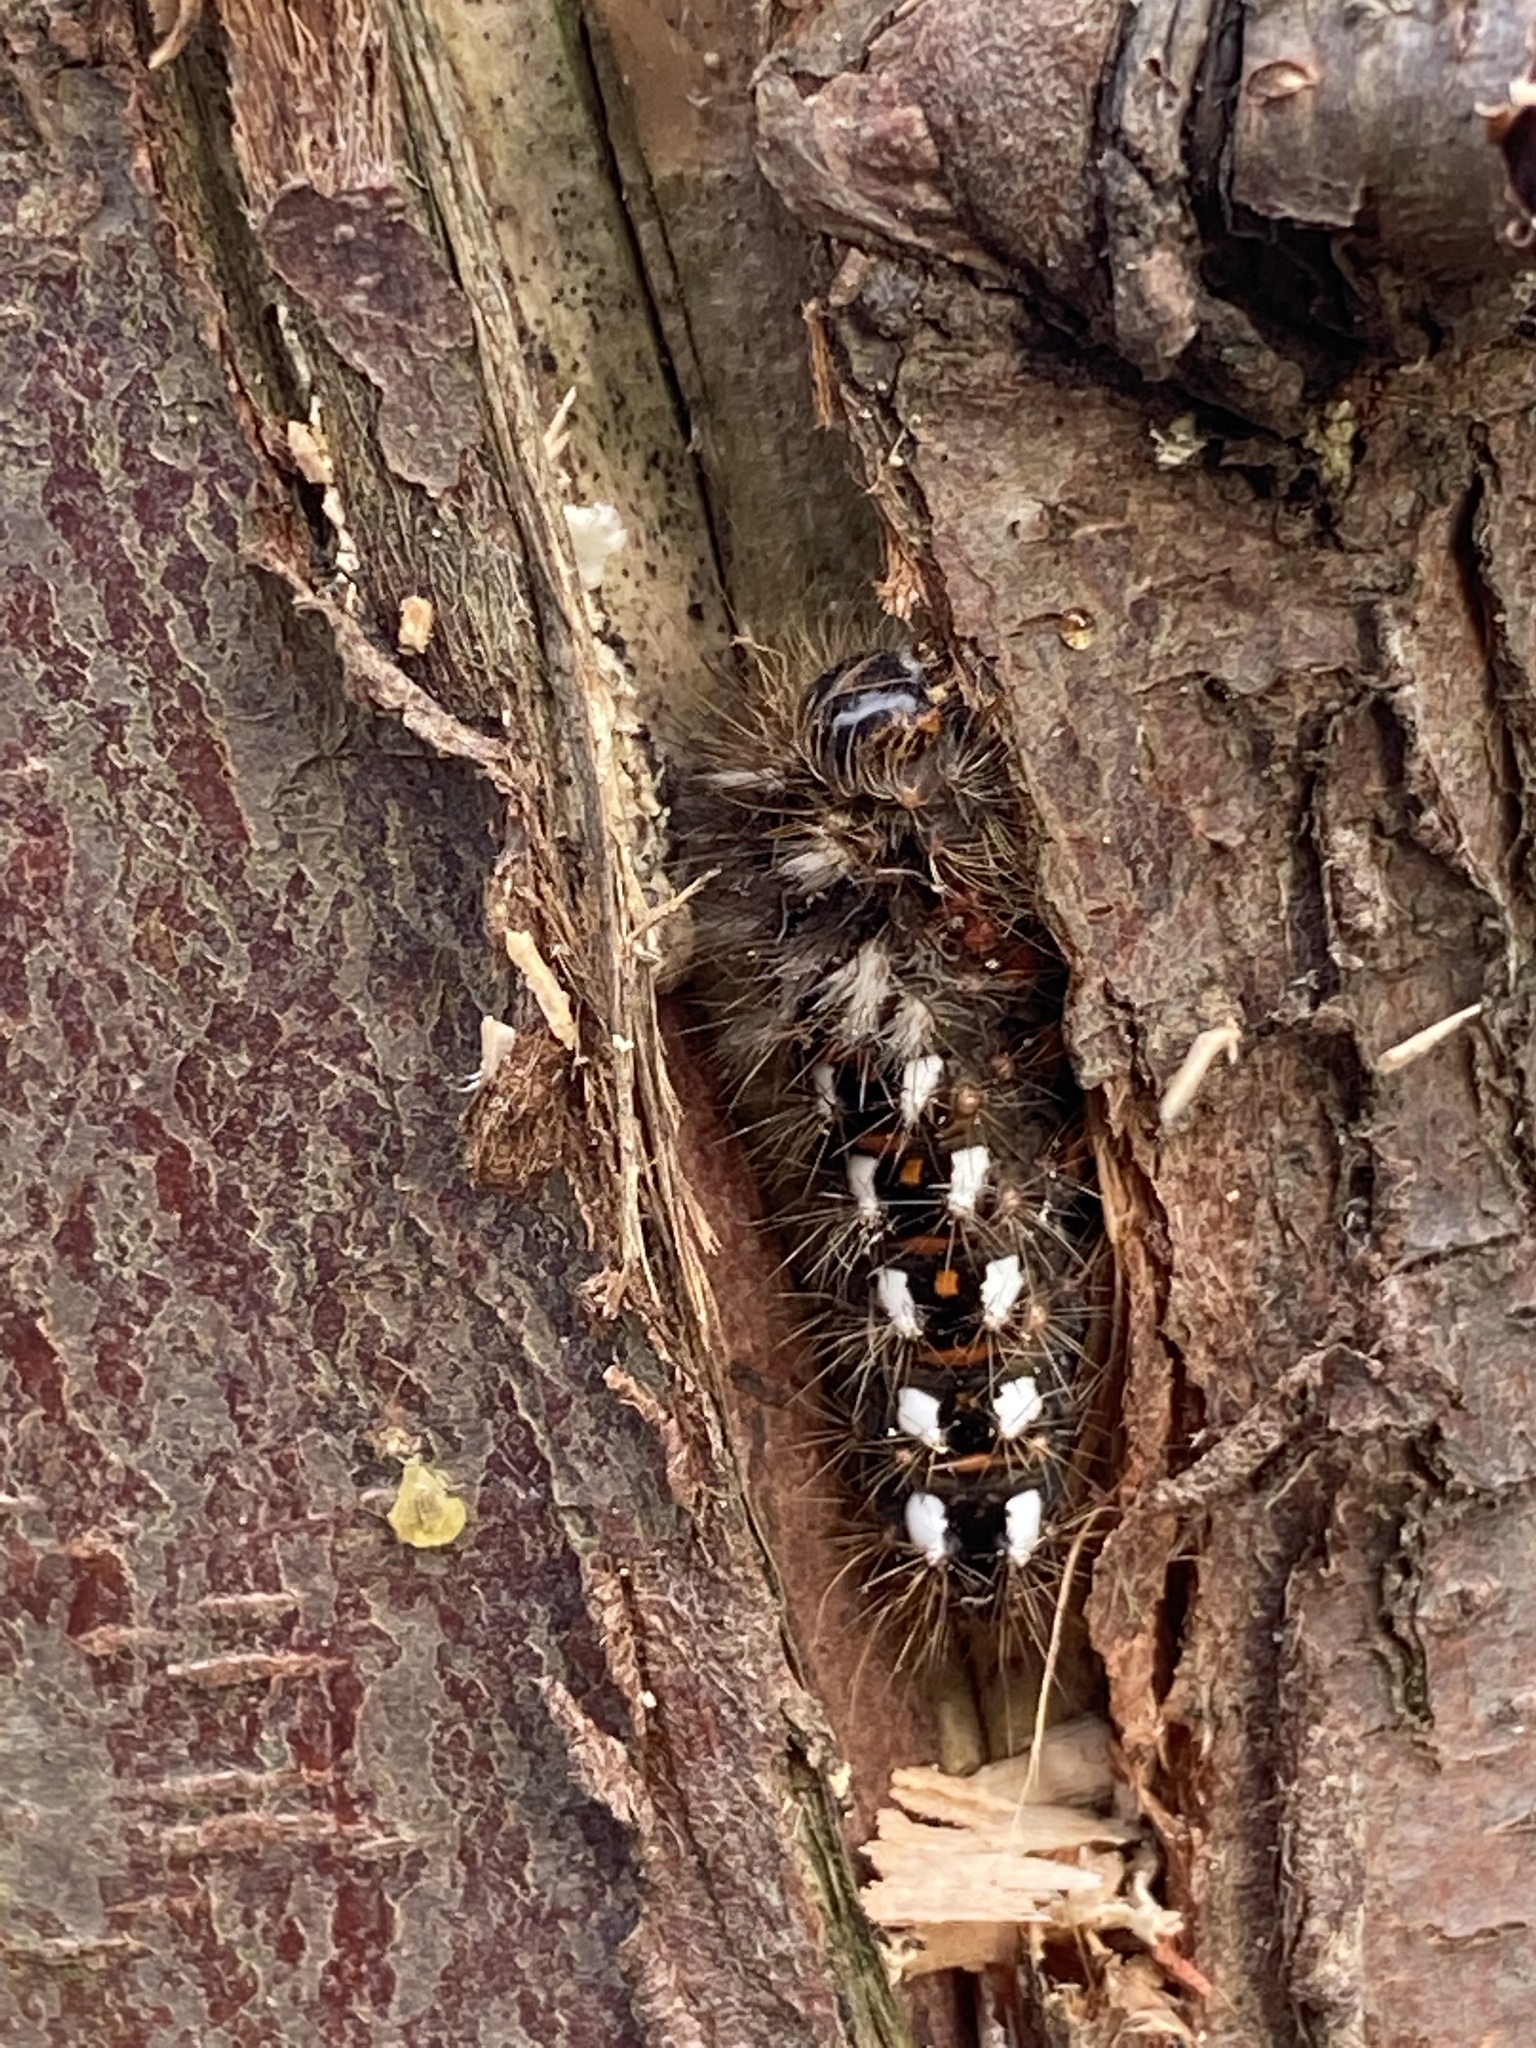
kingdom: Animalia
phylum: Arthropoda
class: Insecta
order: Lepidoptera
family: Noctuidae
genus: Acronicta
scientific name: Acronicta rumicis
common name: Knot grass
